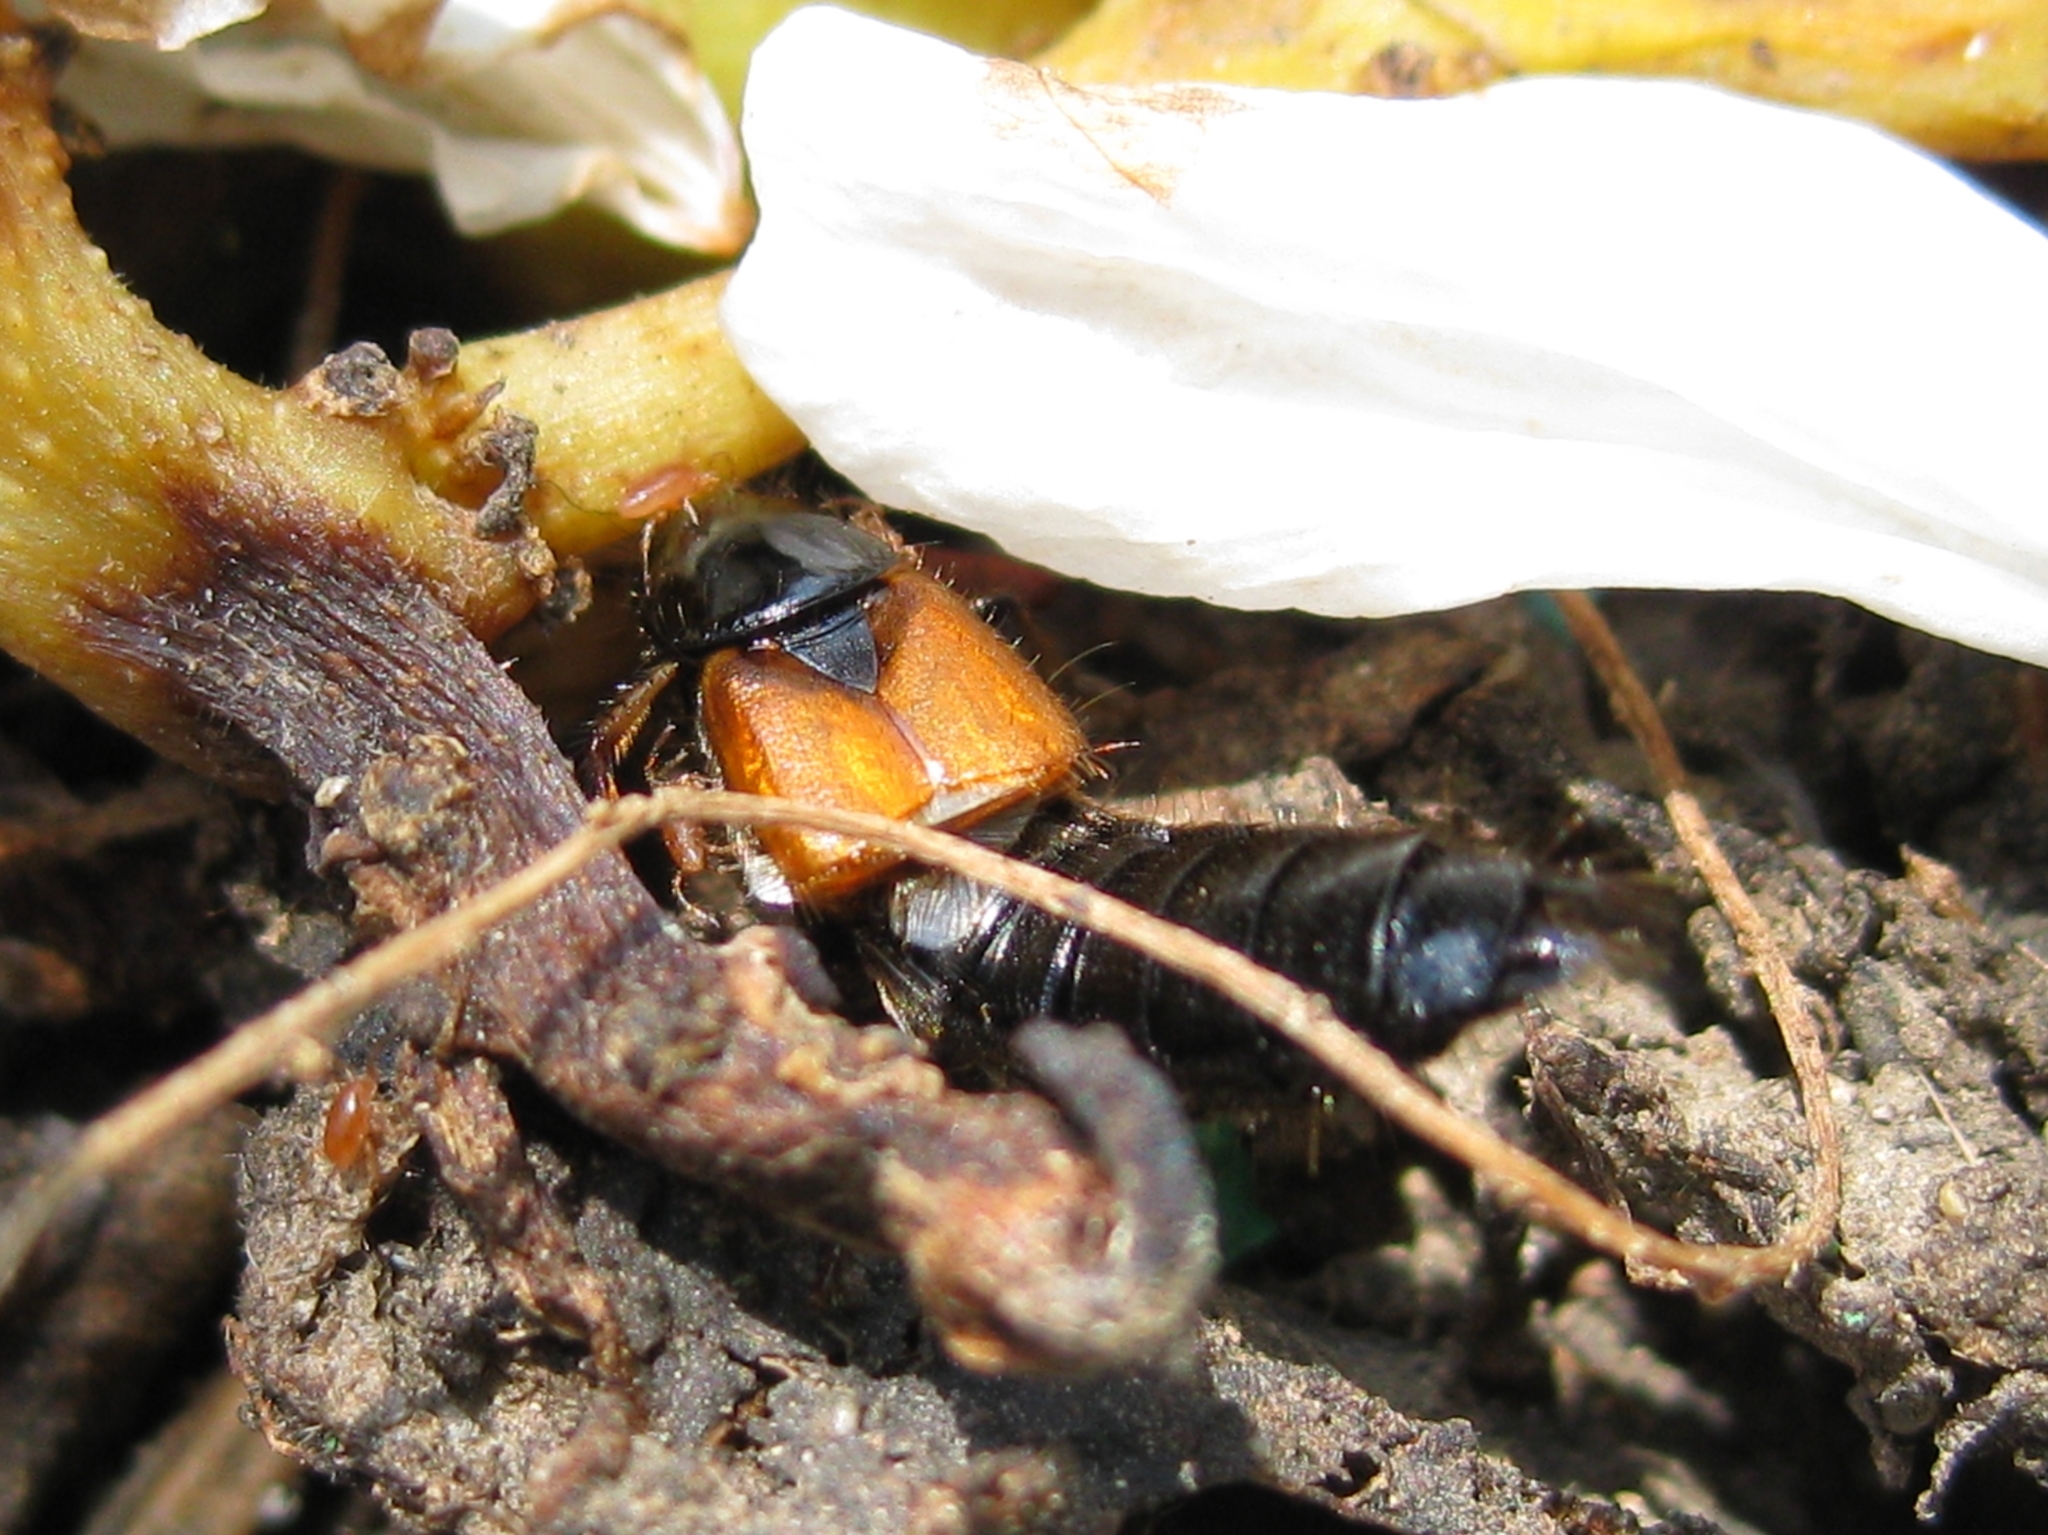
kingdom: Animalia
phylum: Arthropoda
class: Insecta
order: Coleoptera
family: Staphyliniae
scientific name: Staphyliniae
